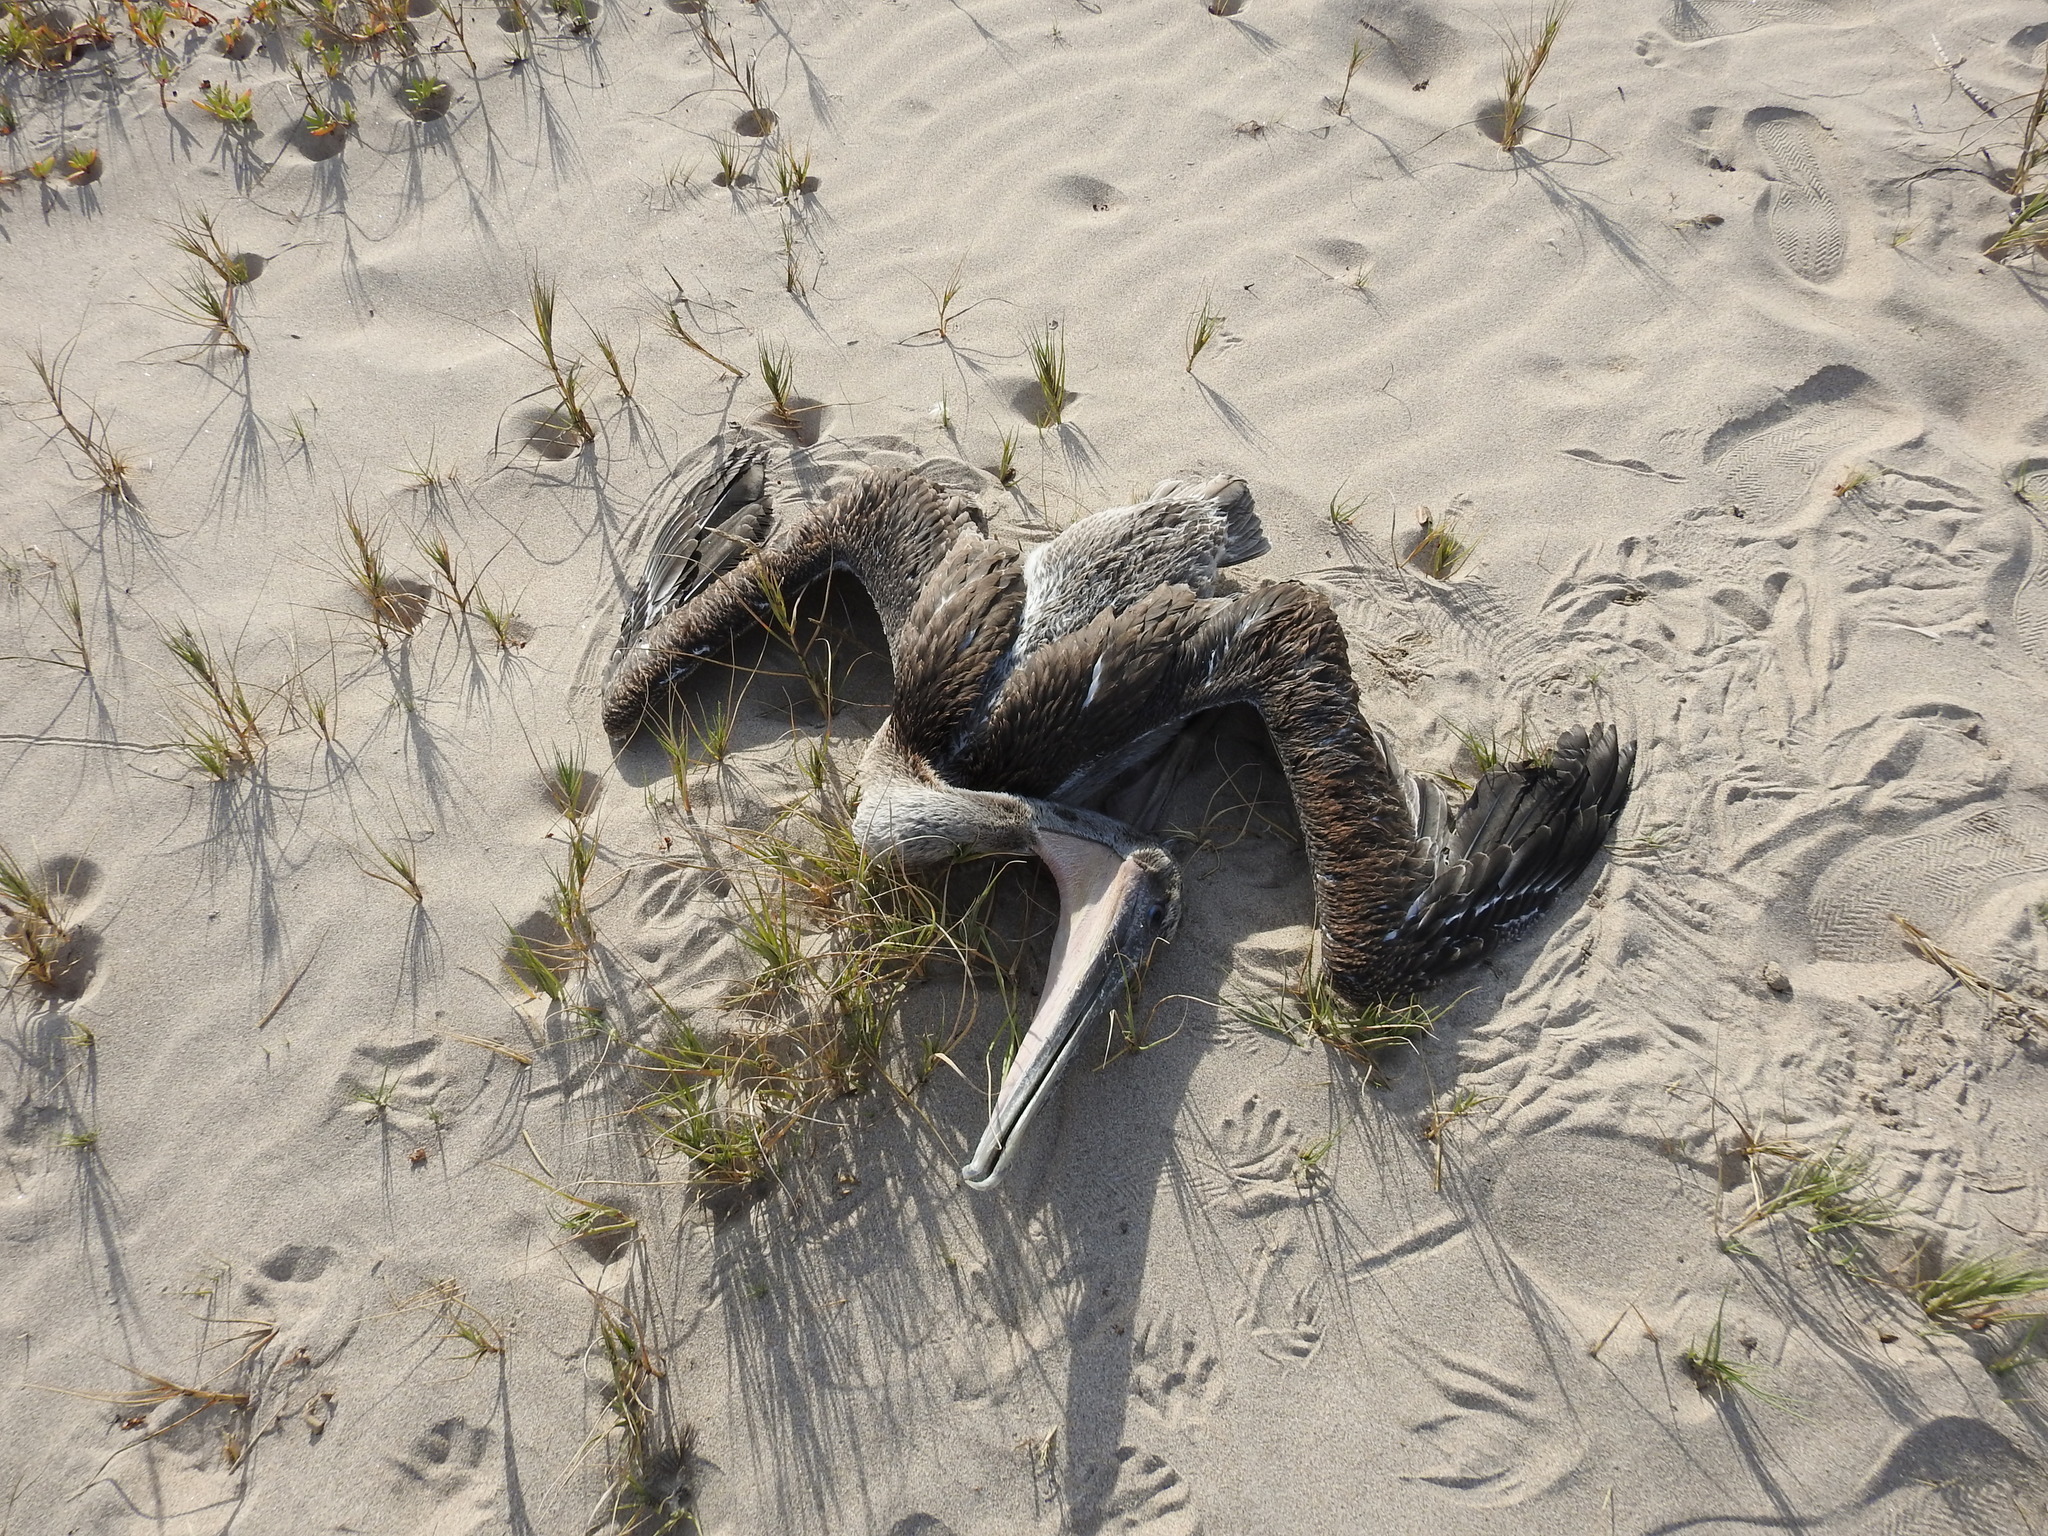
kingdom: Animalia
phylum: Chordata
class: Aves
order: Pelecaniformes
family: Pelecanidae
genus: Pelecanus
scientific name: Pelecanus occidentalis
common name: Brown pelican
